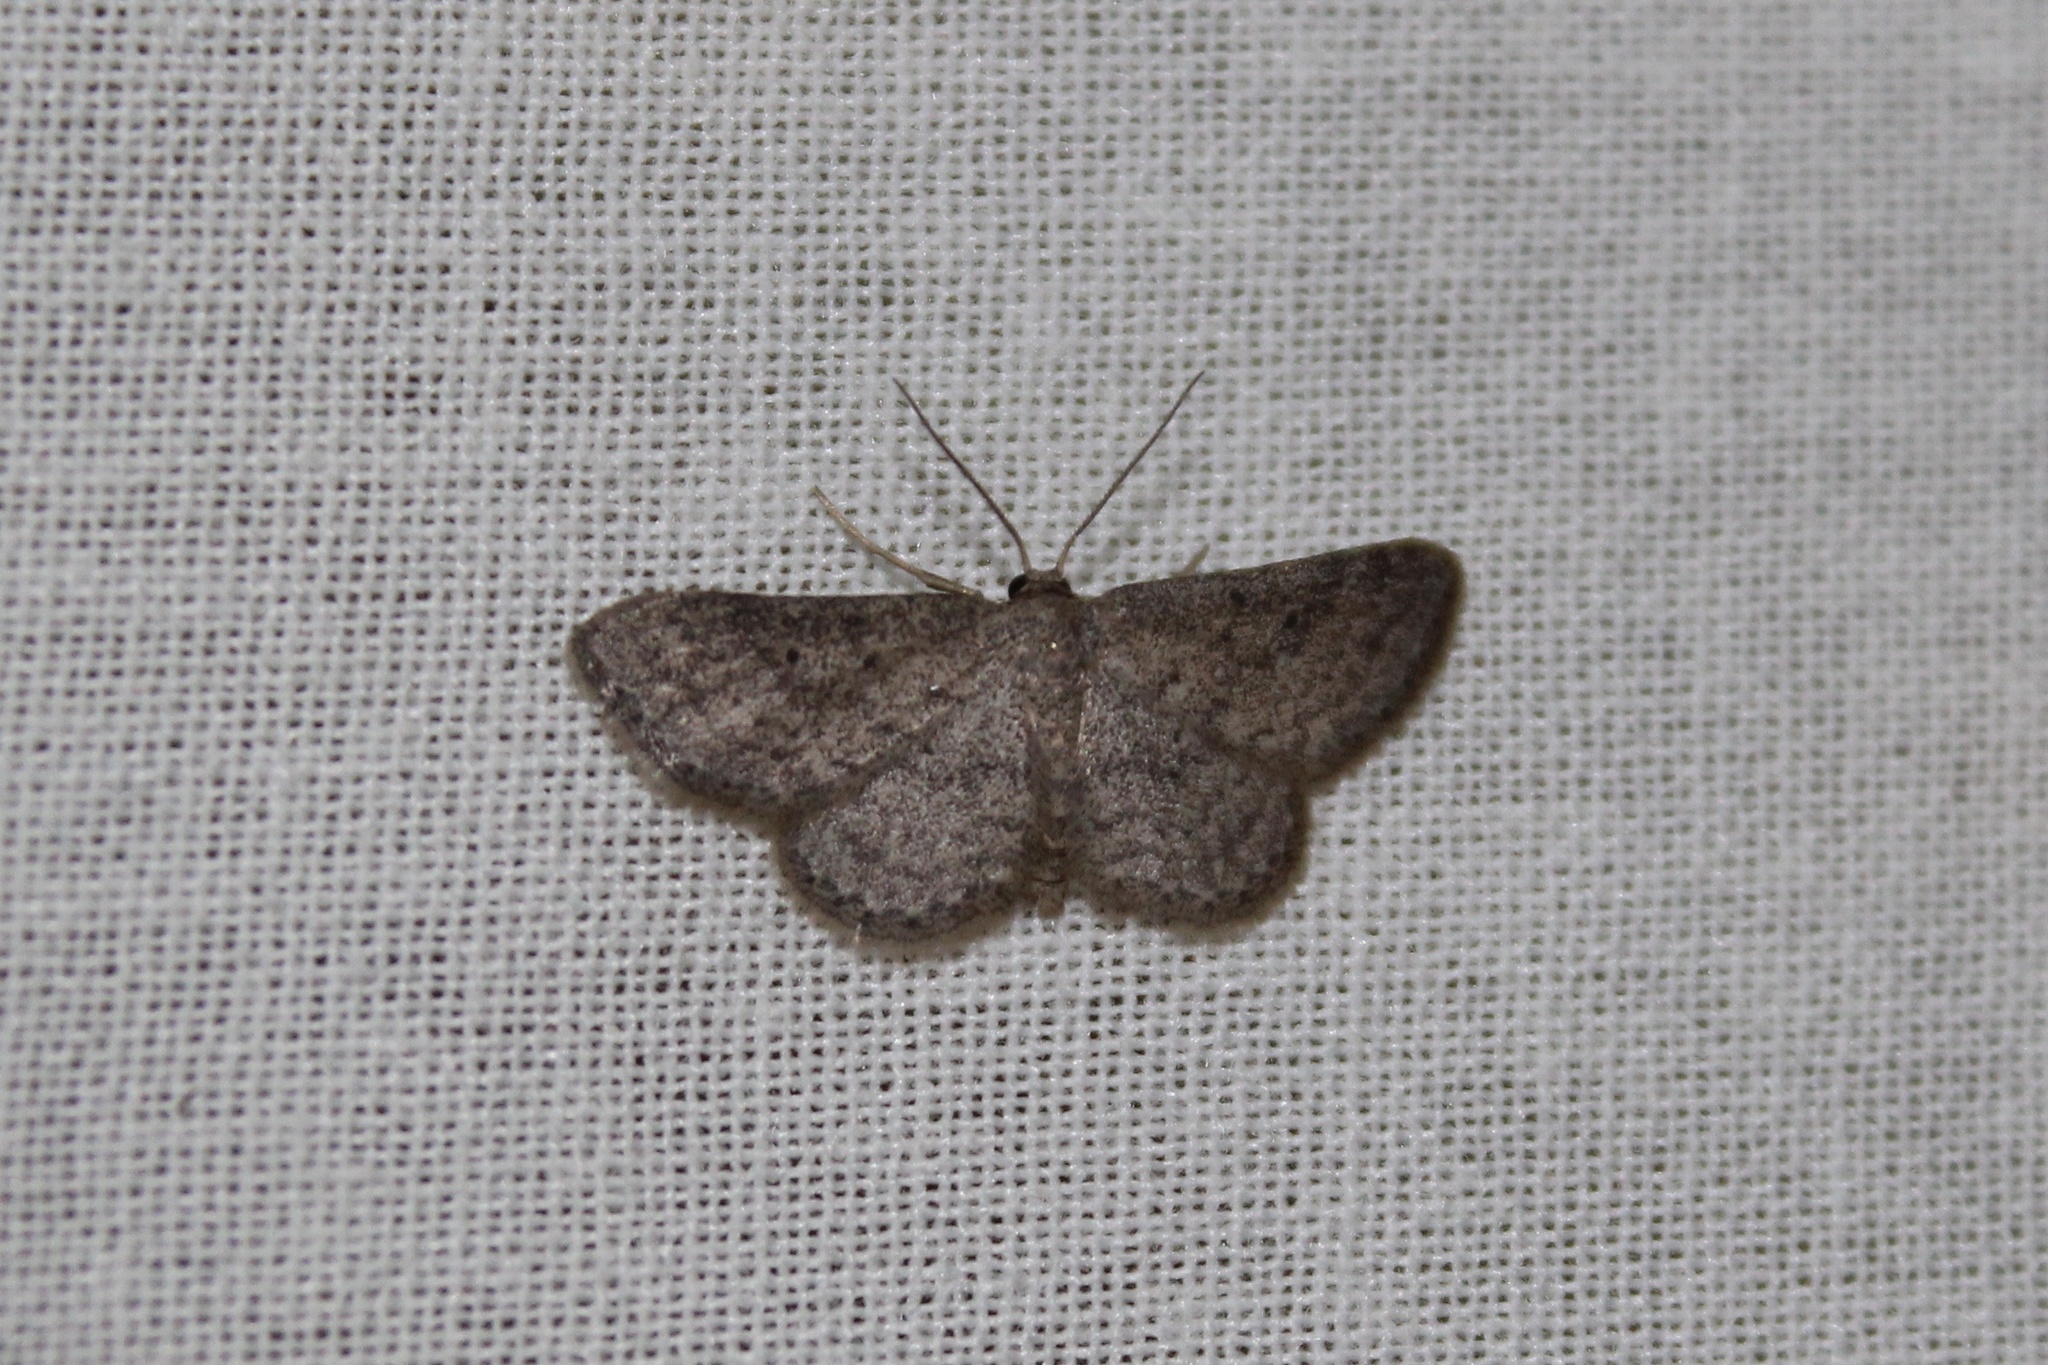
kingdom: Animalia
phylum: Arthropoda
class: Insecta
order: Lepidoptera
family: Geometridae
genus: Lobocleta
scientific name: Lobocleta ossularia
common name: Drab brown wave
